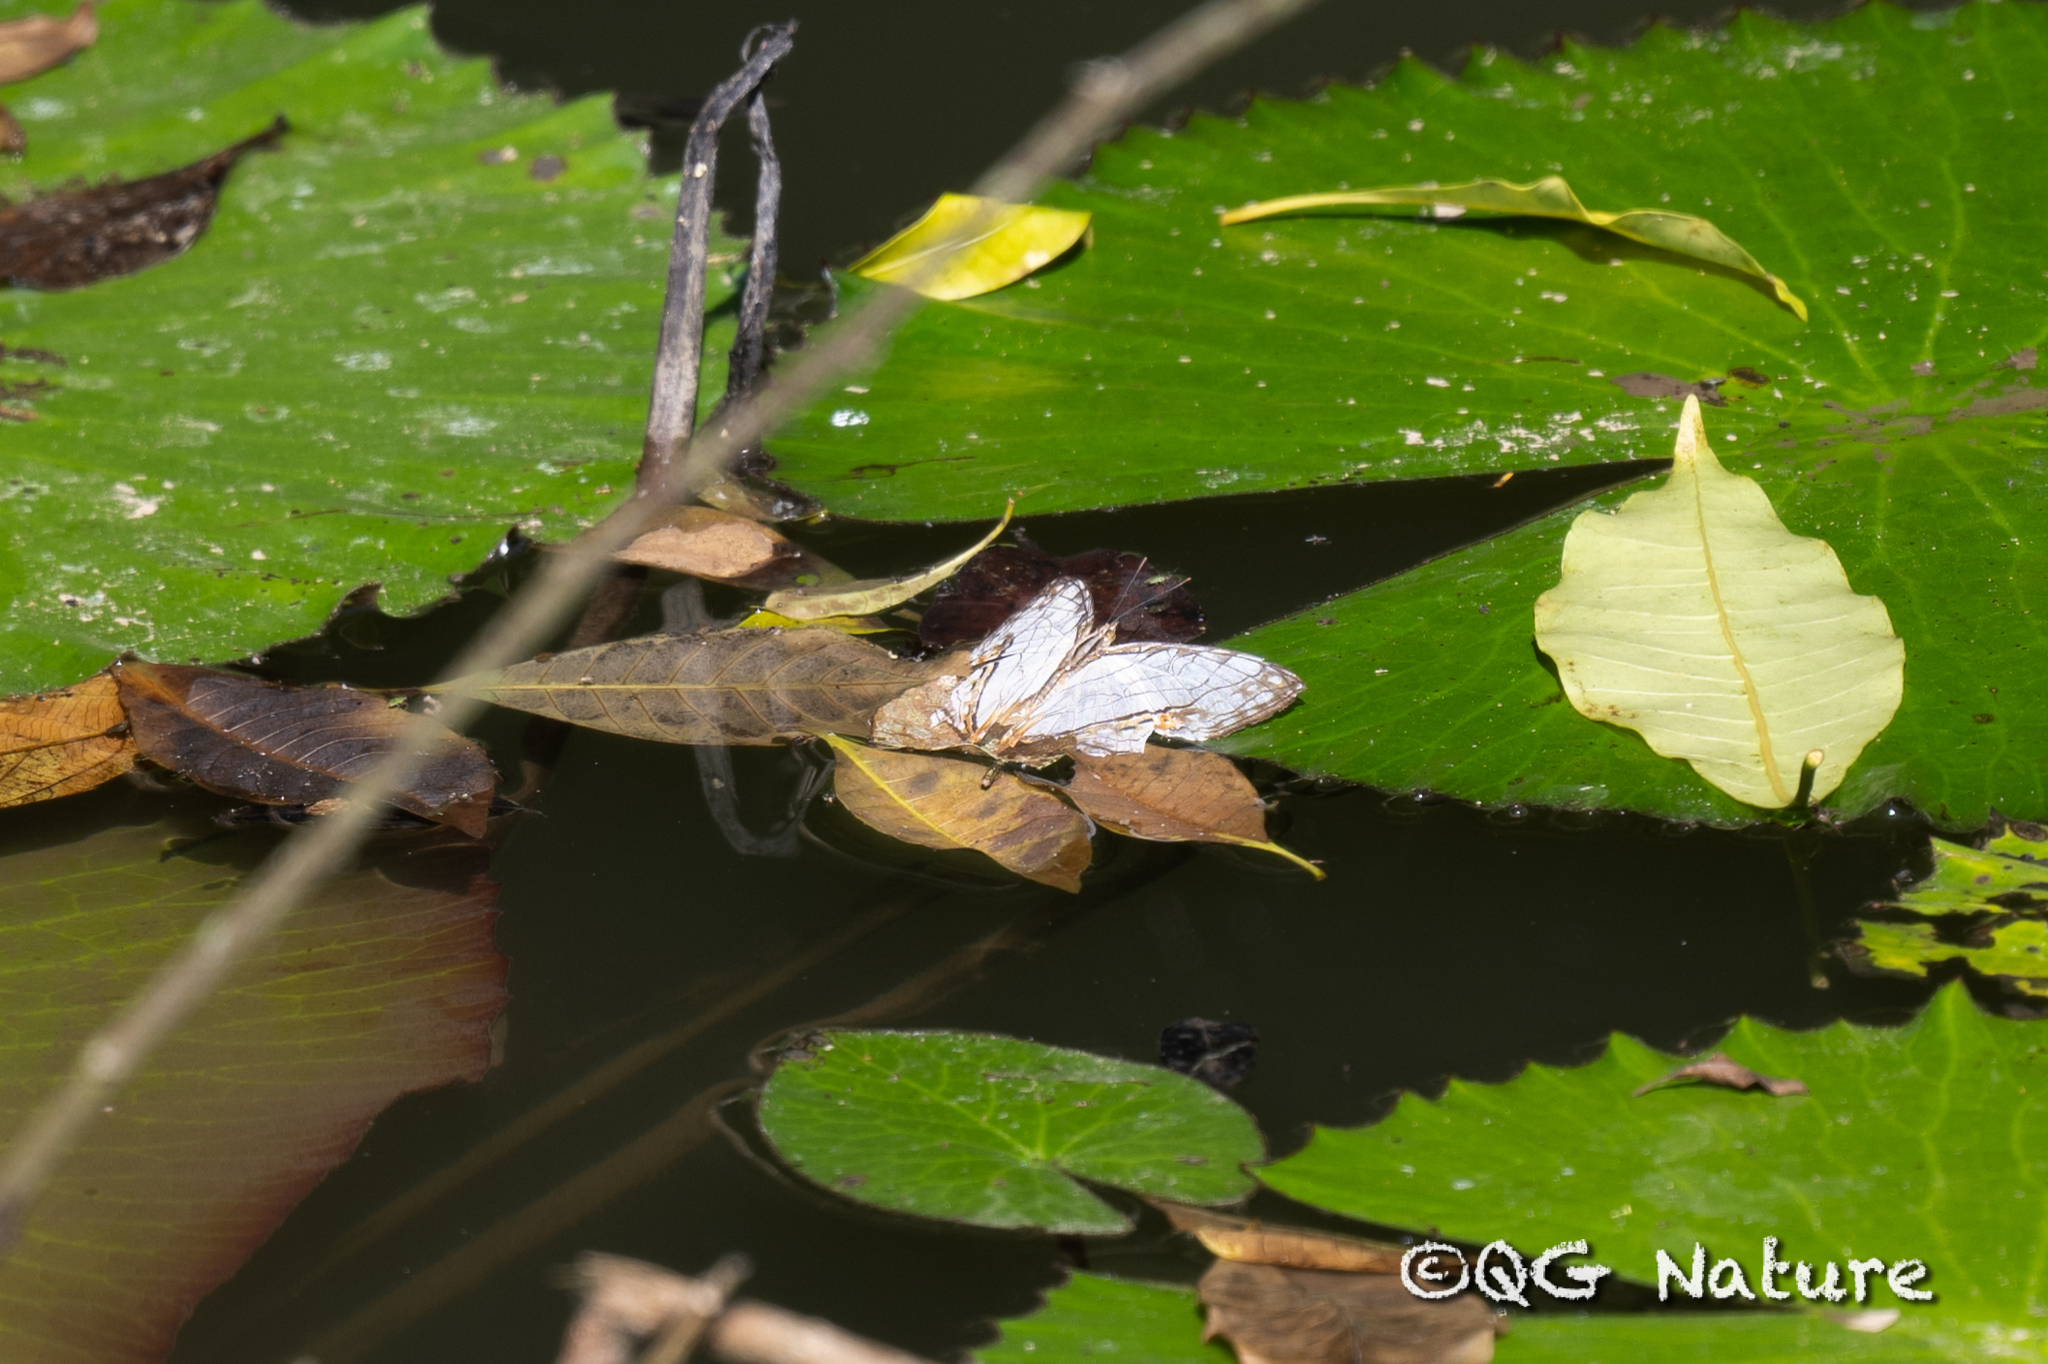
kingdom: Animalia
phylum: Arthropoda
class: Insecta
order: Lepidoptera
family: Nymphalidae
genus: Cyrestis
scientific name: Cyrestis thyodamas
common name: Common mapwing
